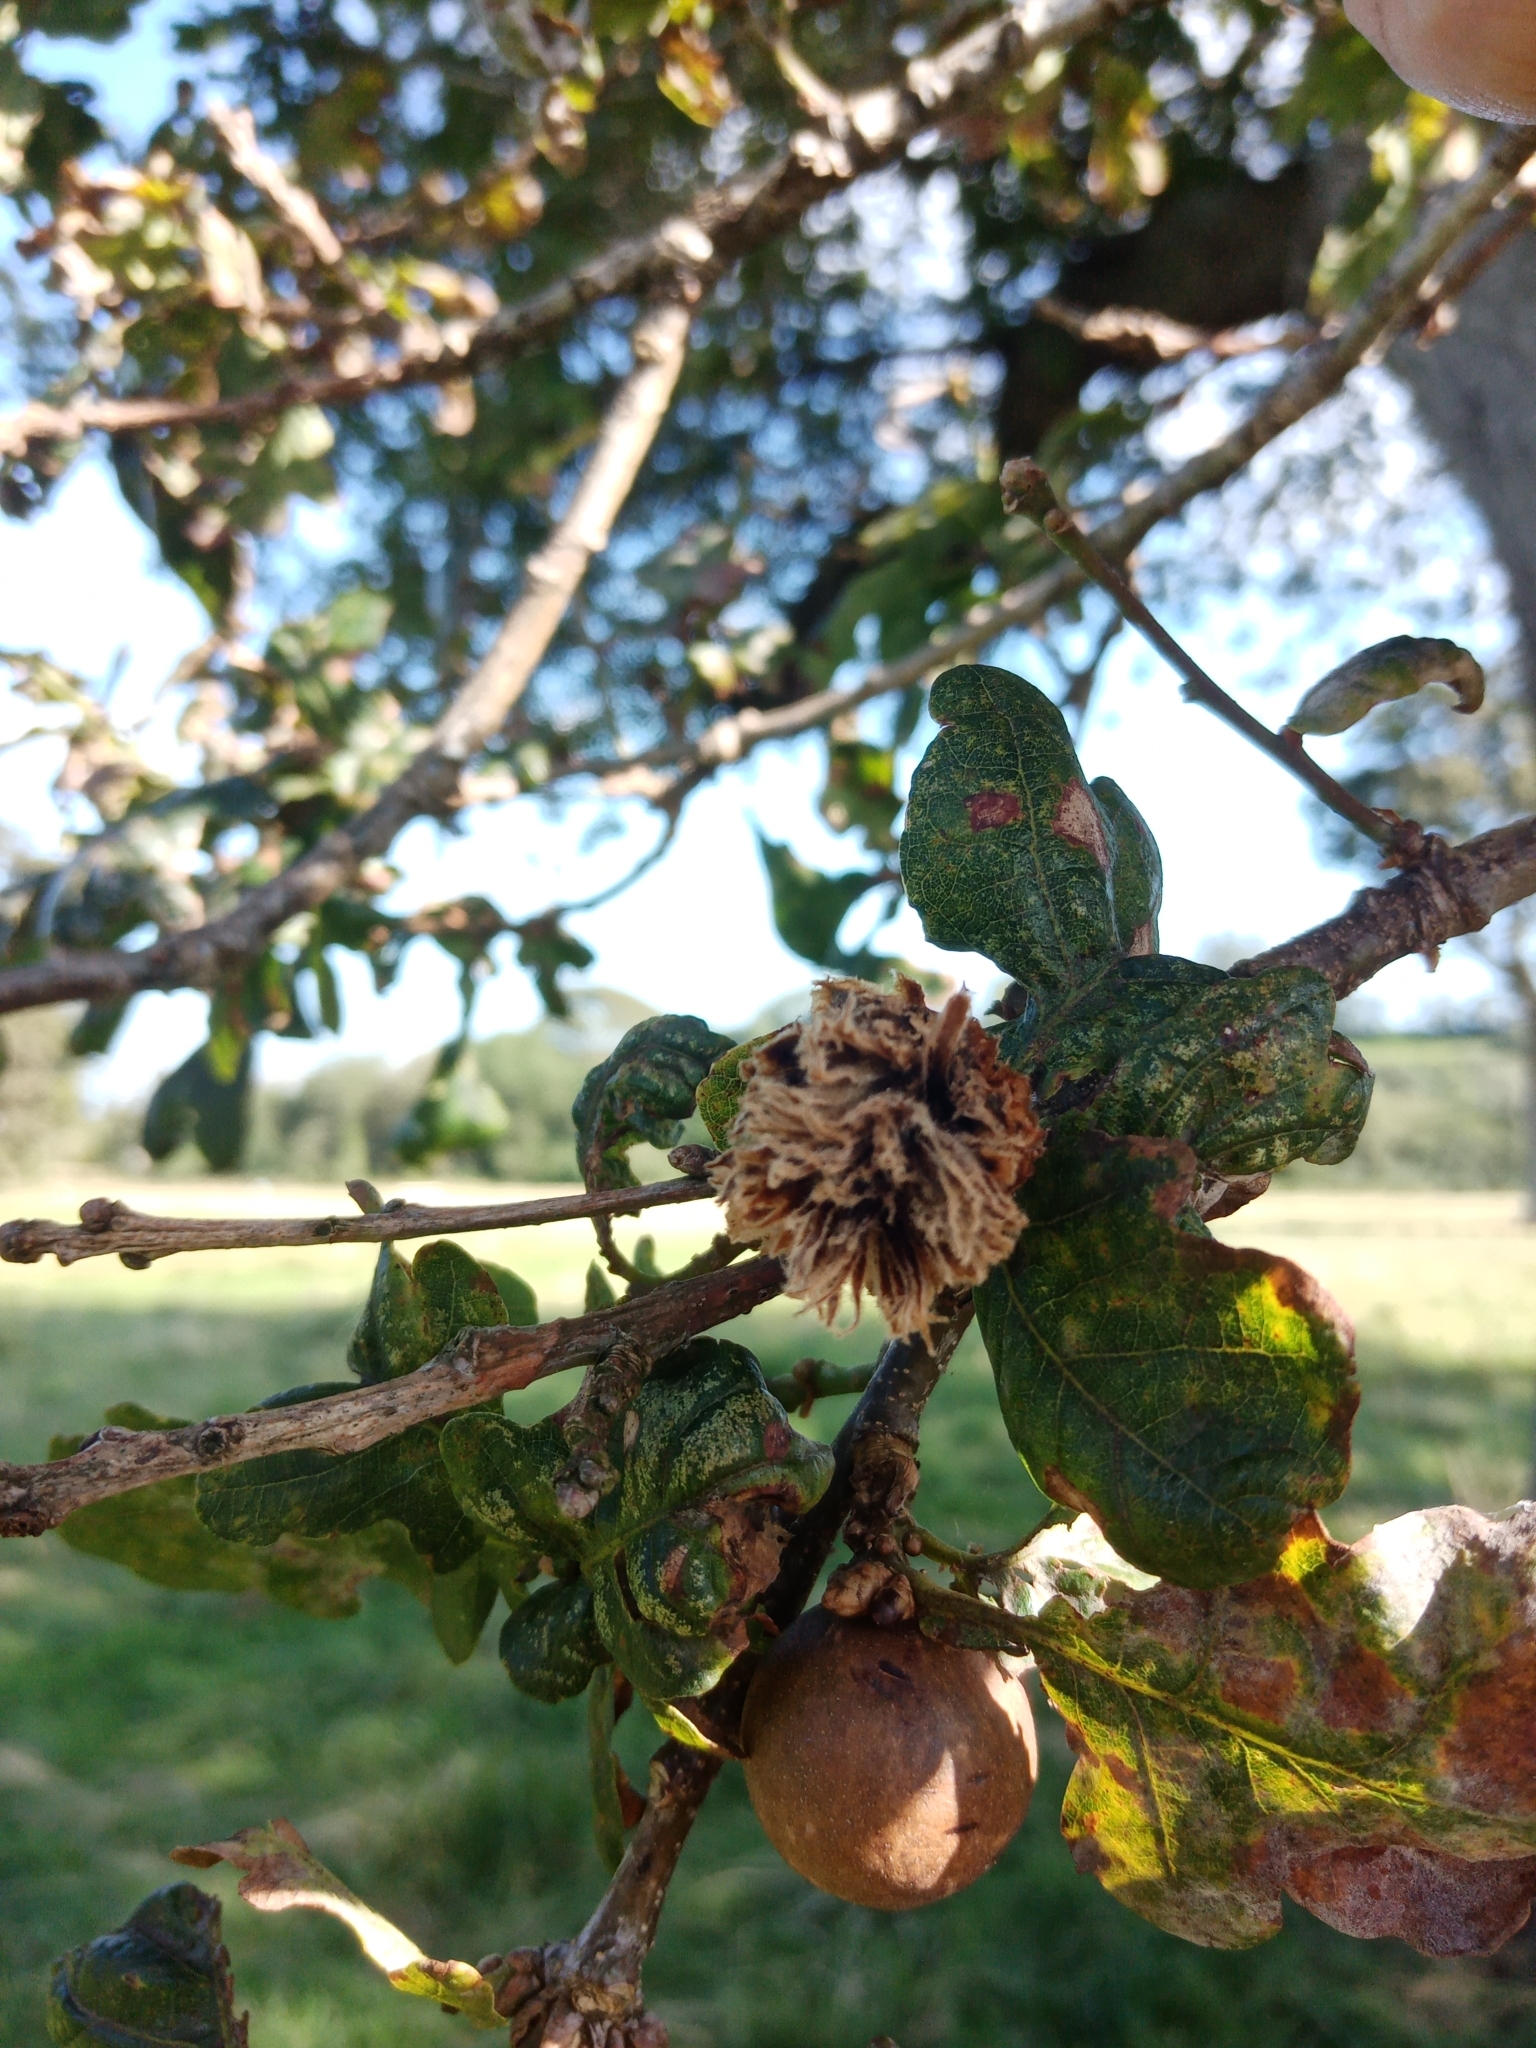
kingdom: Animalia
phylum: Arthropoda
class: Insecta
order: Hymenoptera
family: Cynipidae
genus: Andricus
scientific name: Andricus foecundatrix
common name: Artichoke gall
